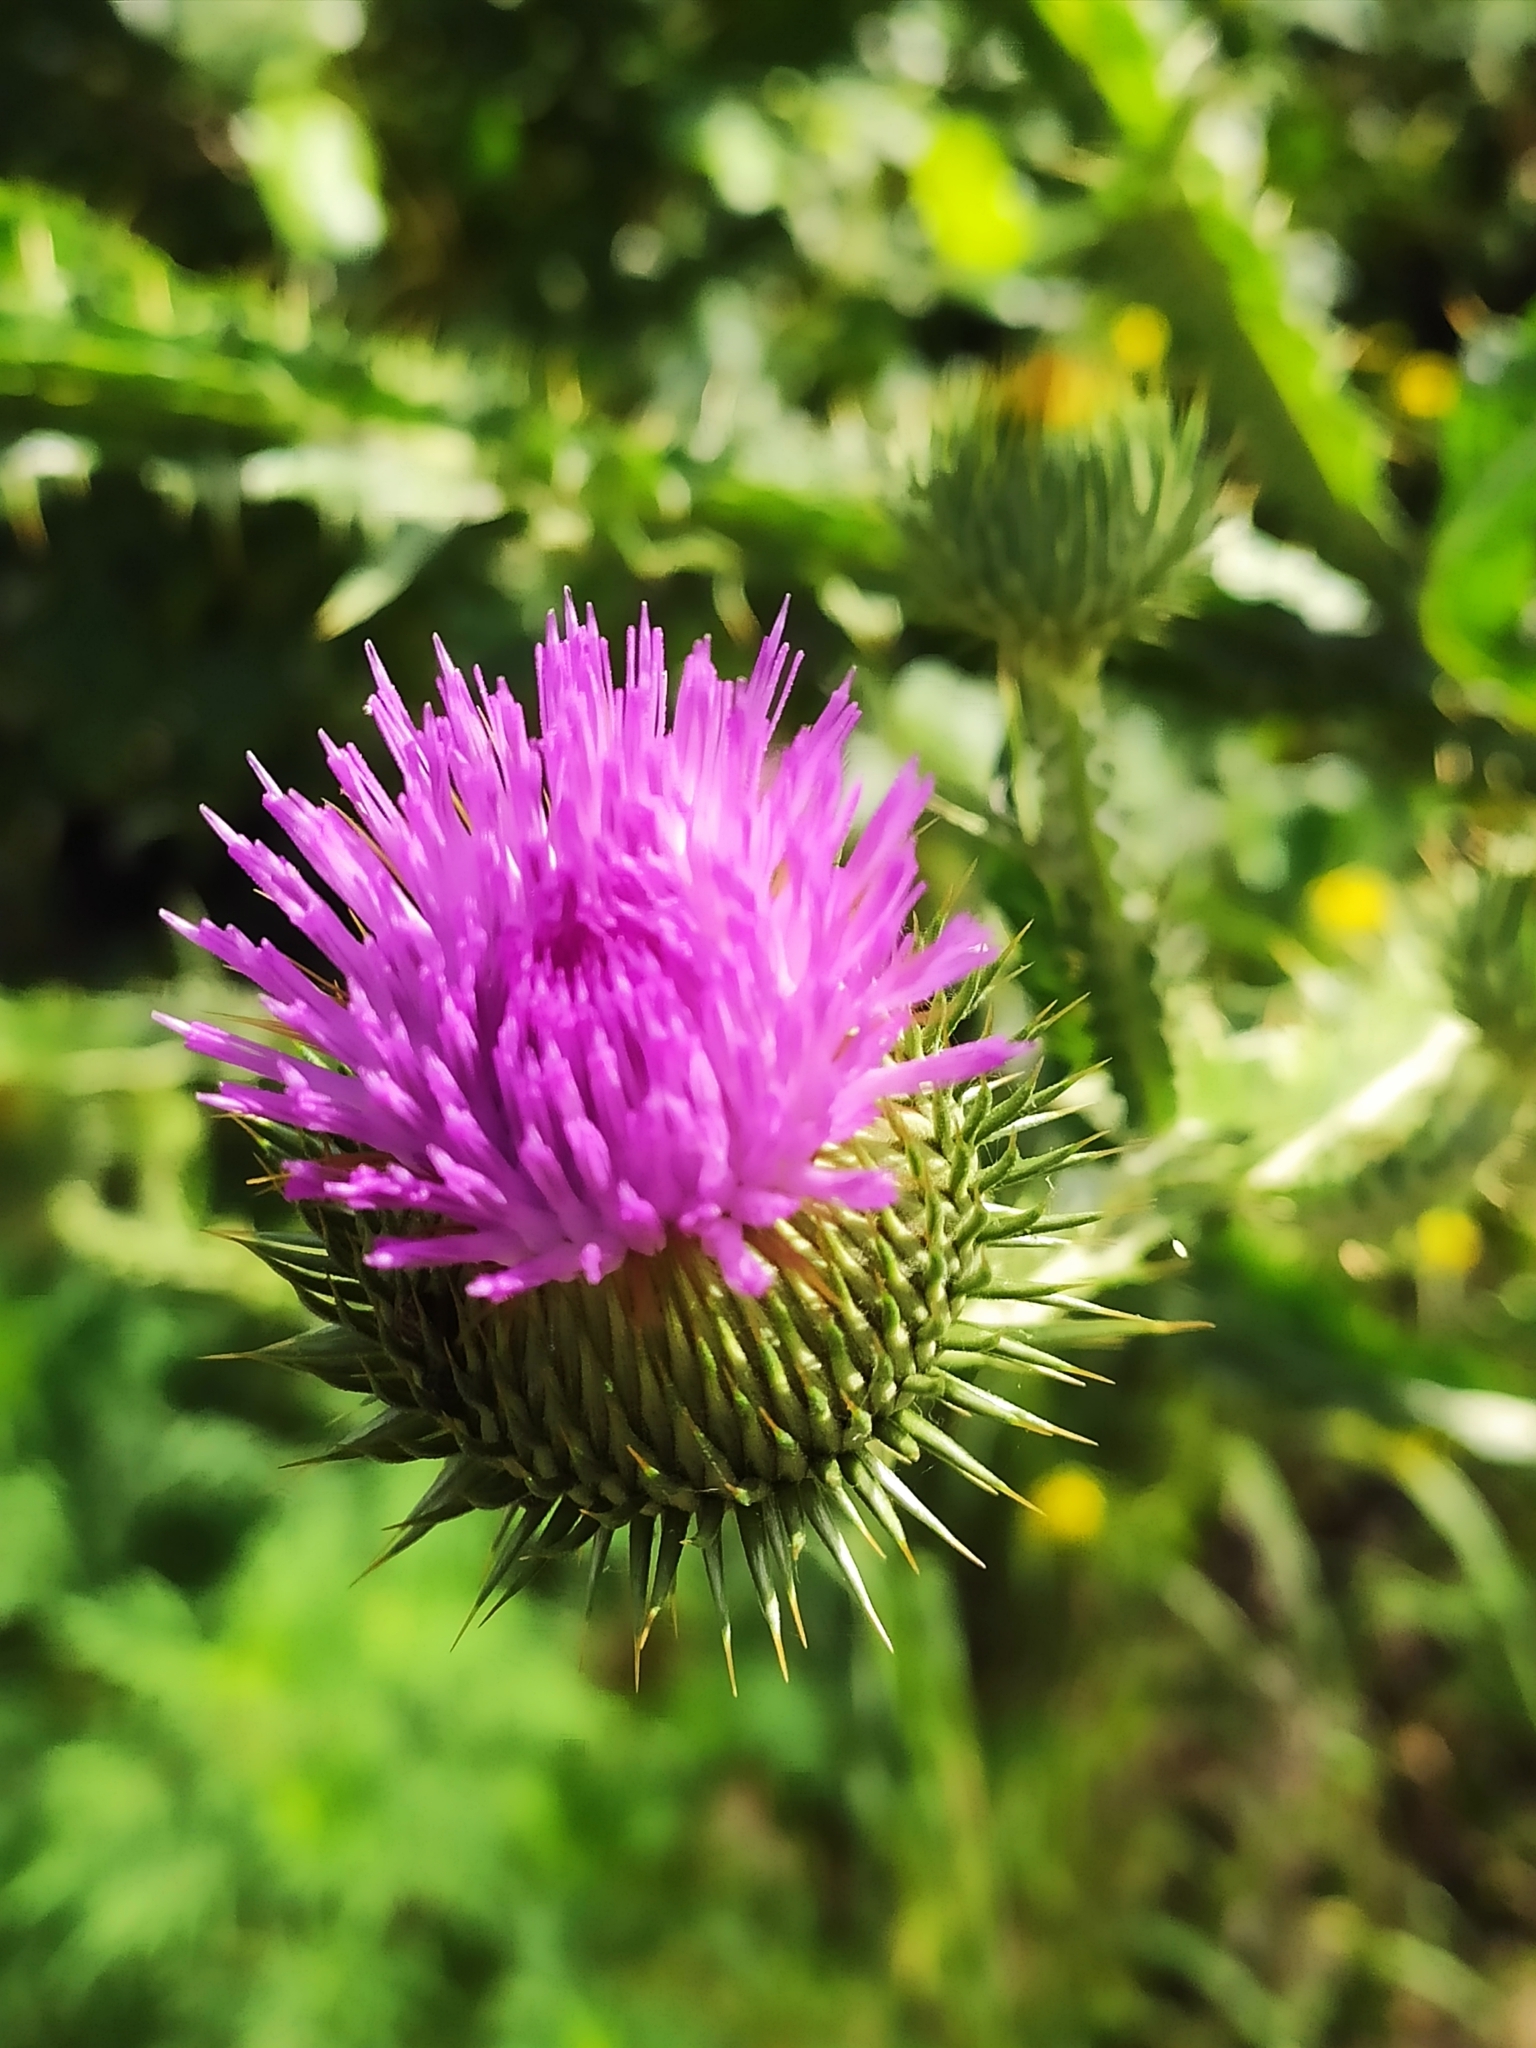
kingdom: Plantae
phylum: Tracheophyta
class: Magnoliopsida
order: Asterales
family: Asteraceae
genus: Onopordum
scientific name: Onopordum acanthium
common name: Scotch thistle
